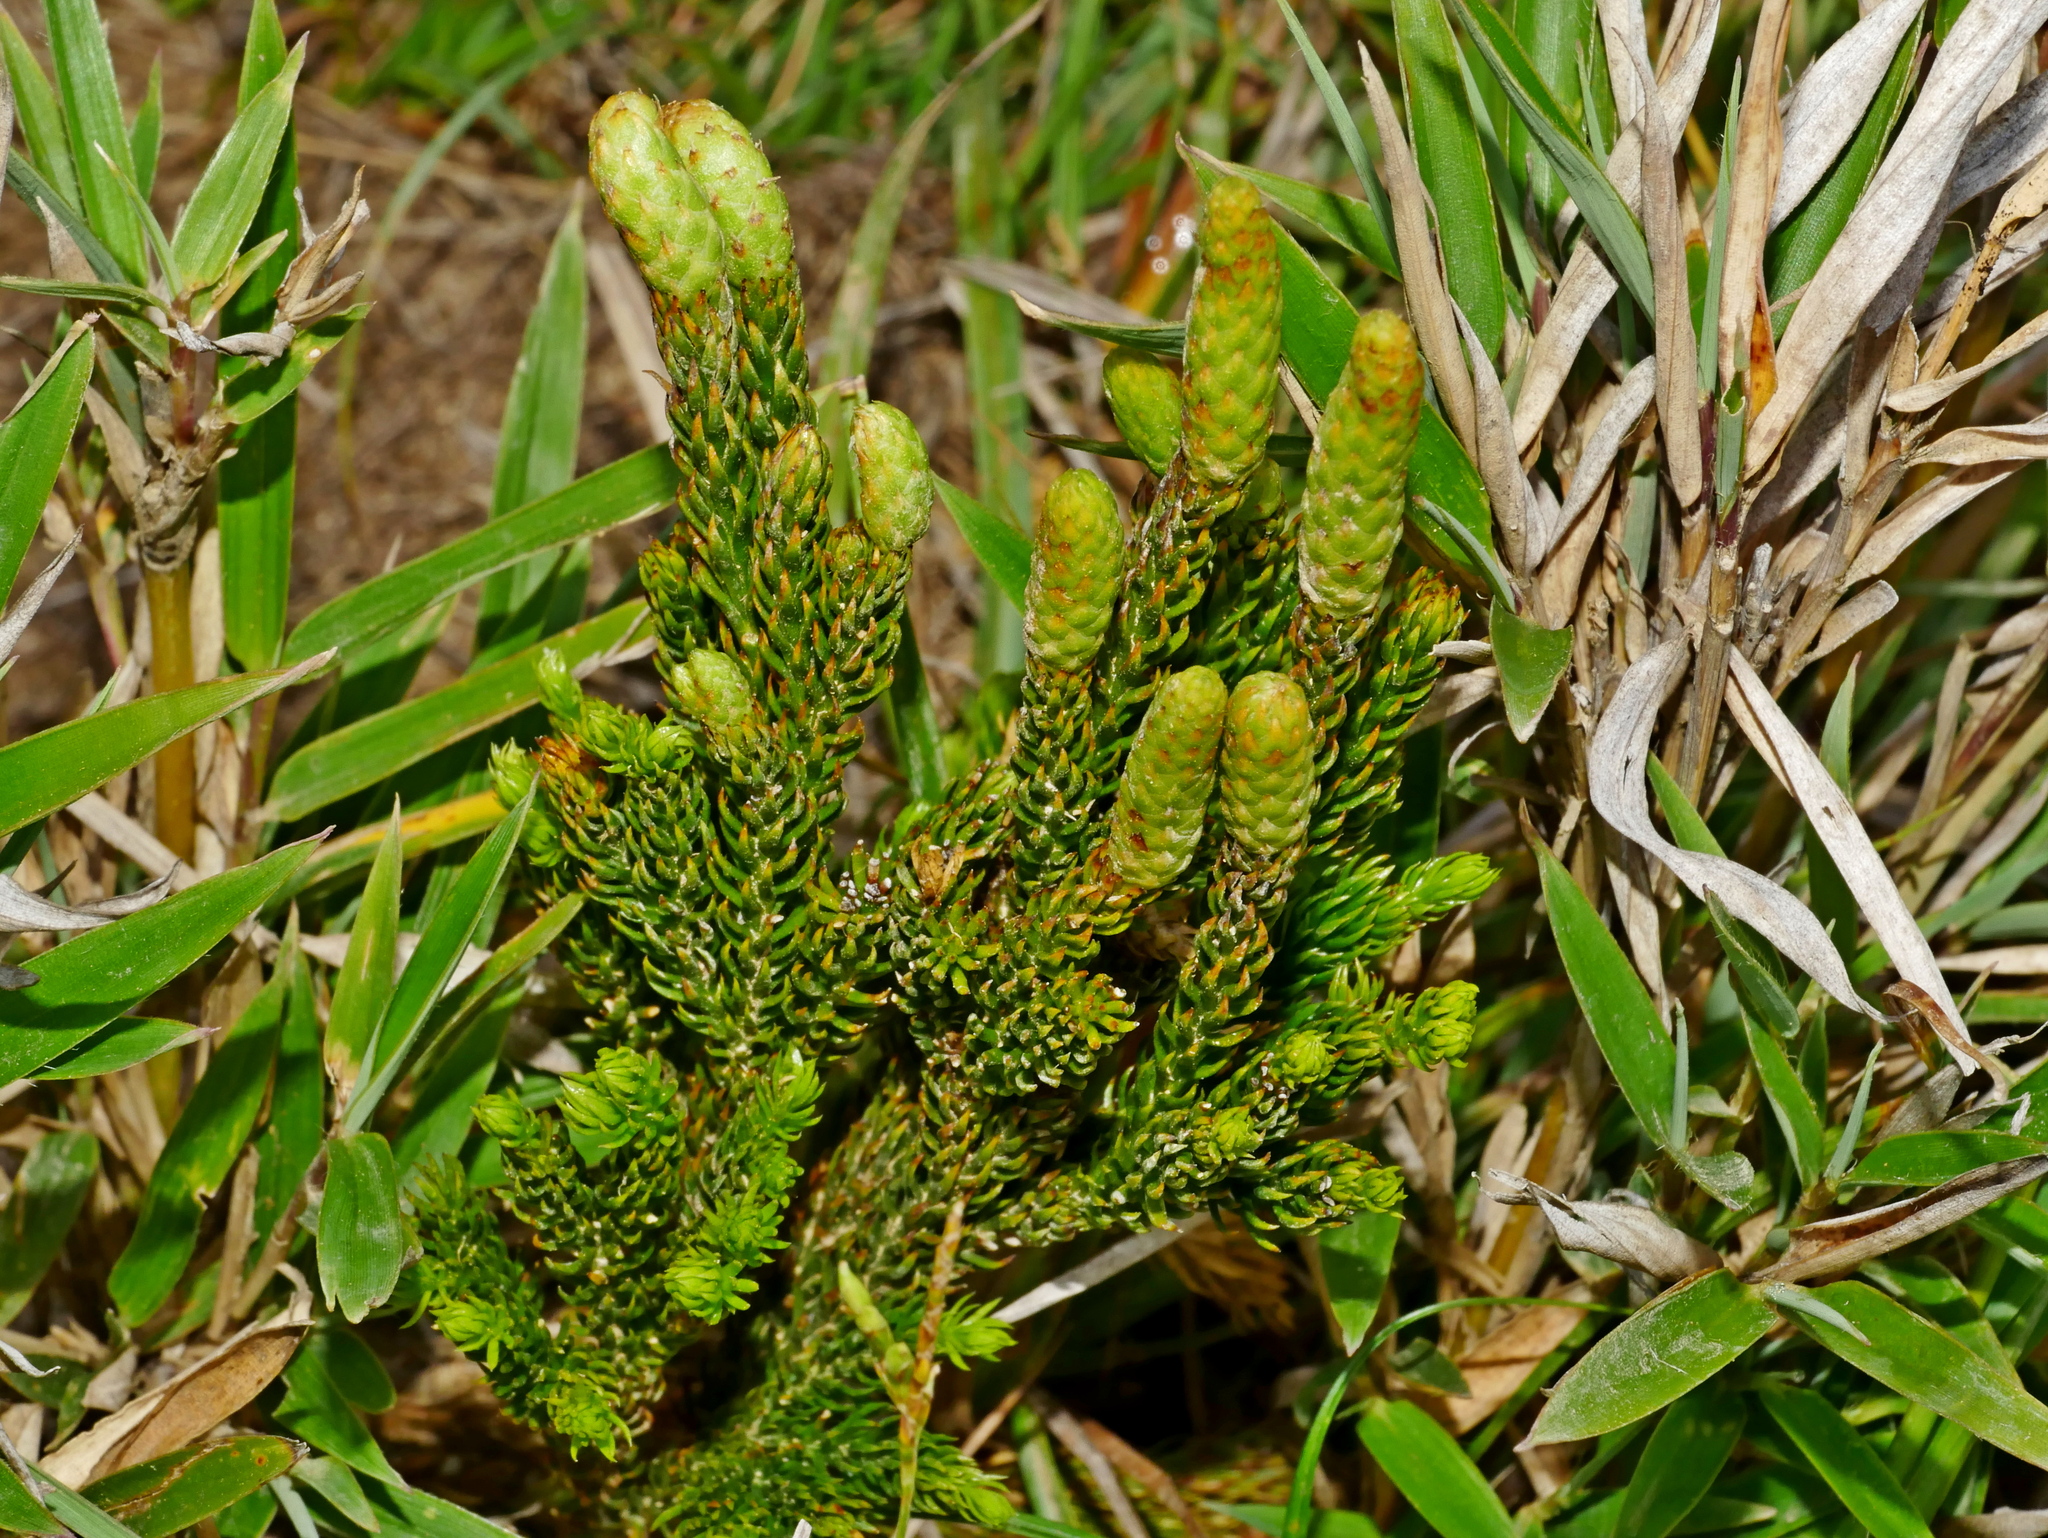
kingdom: Plantae
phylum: Tracheophyta
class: Lycopodiopsida
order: Lycopodiales
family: Lycopodiaceae
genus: Dendrolycopodium
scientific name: Dendrolycopodium juniperoideum
